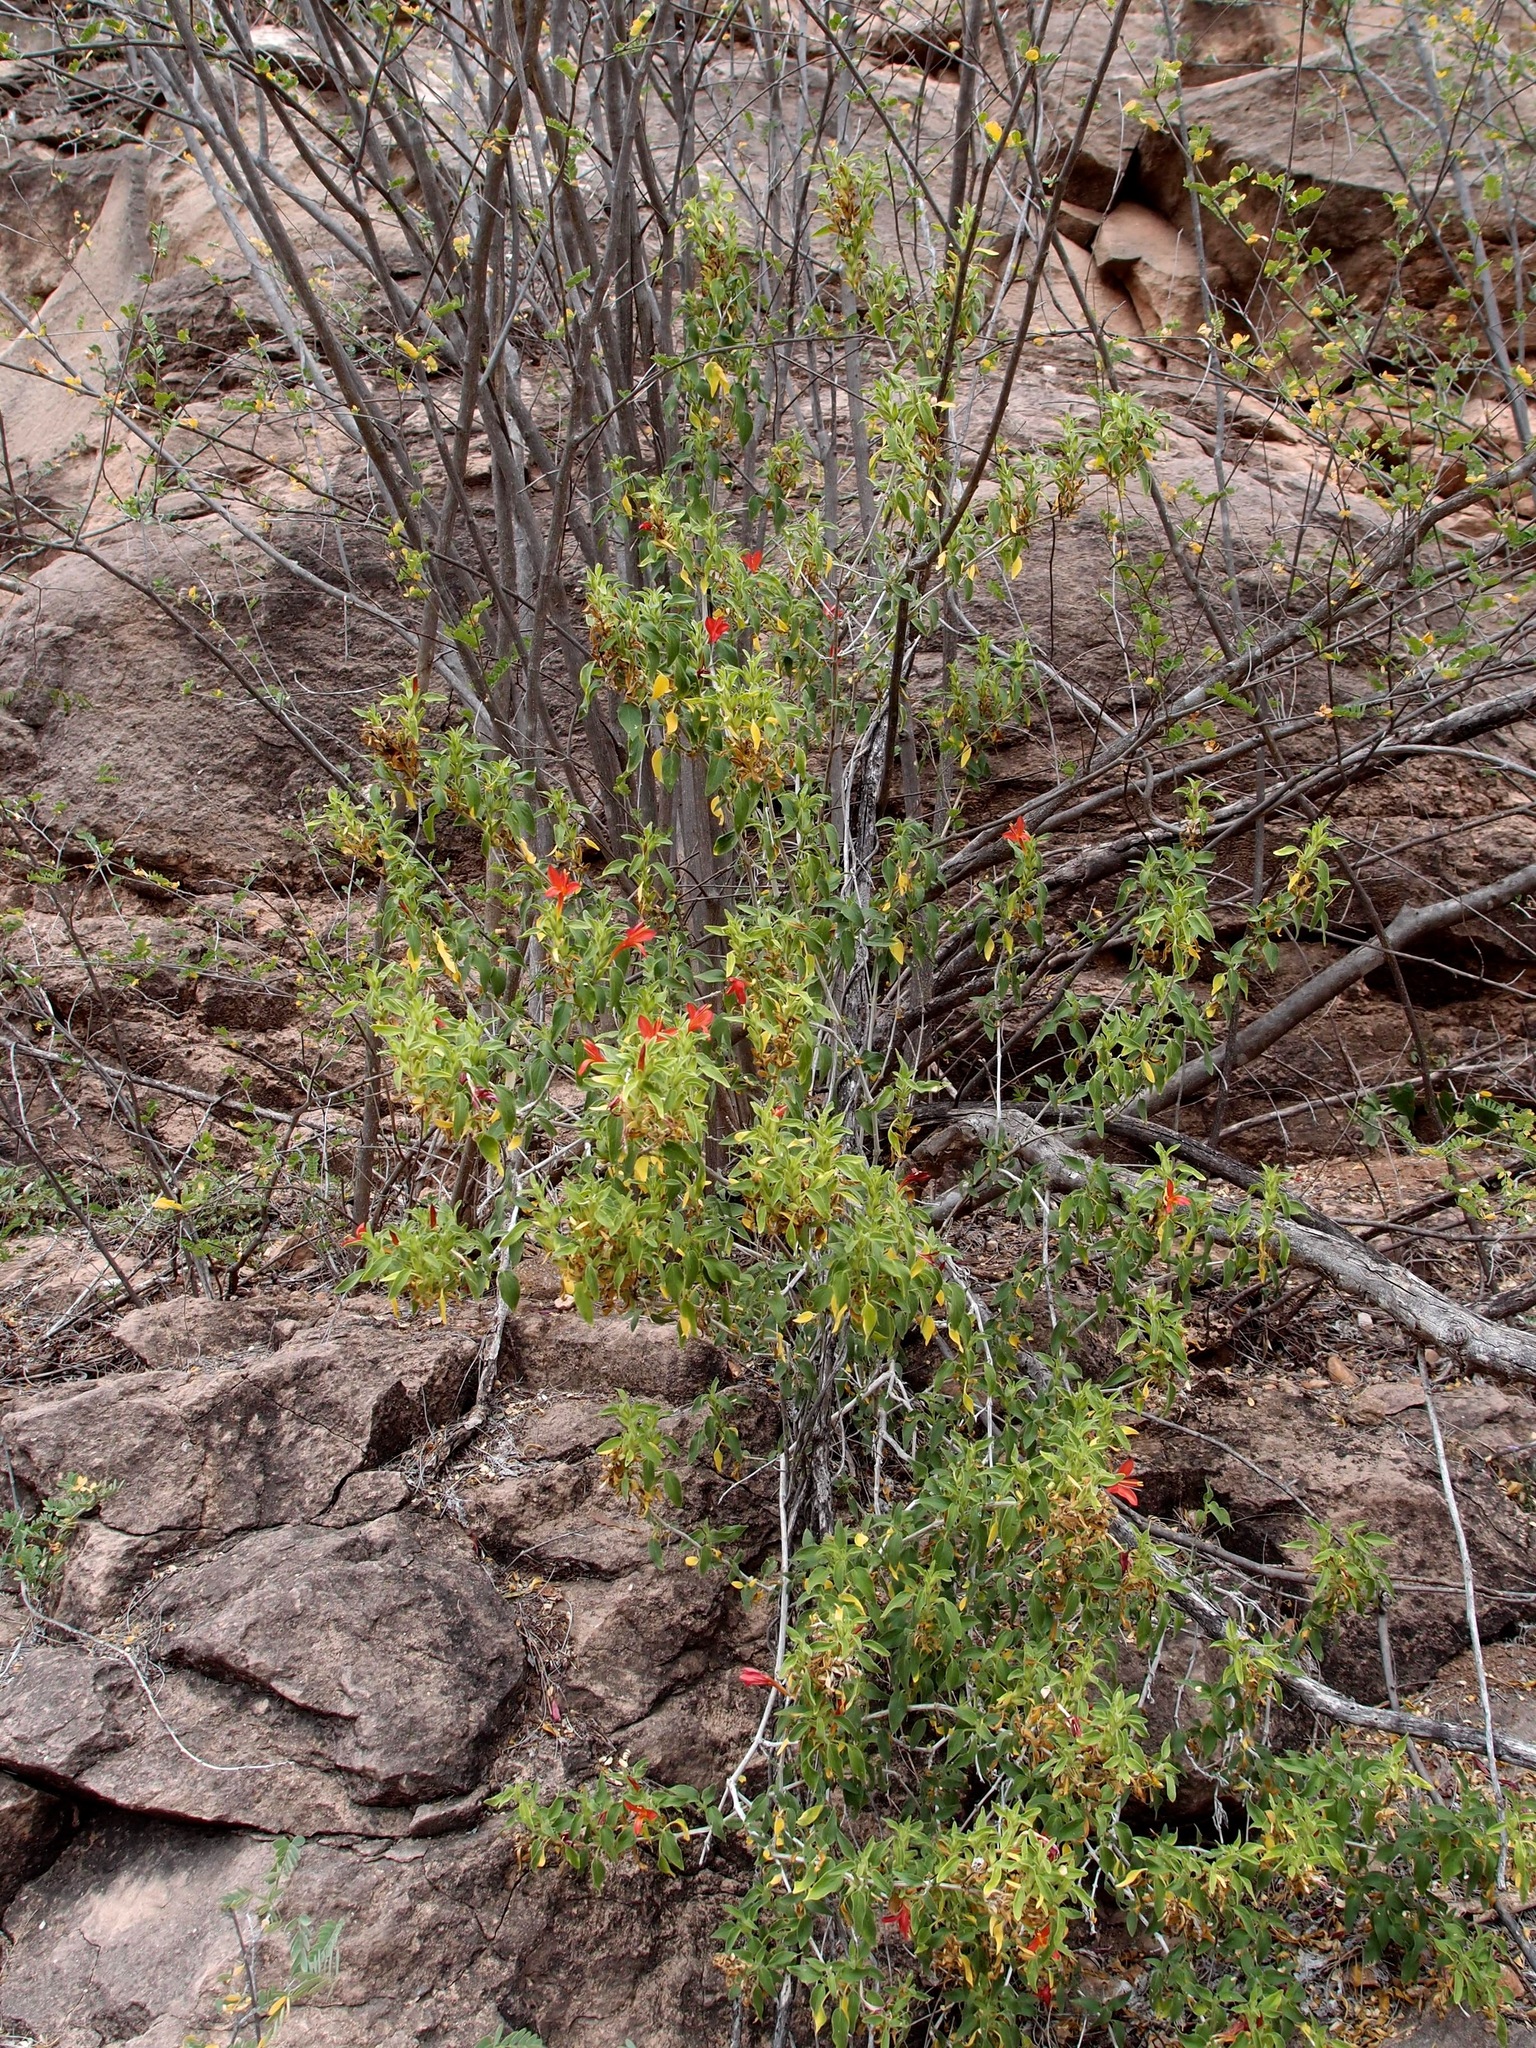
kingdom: Plantae
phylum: Tracheophyta
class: Magnoliopsida
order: Lamiales
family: Acanthaceae
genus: Tetramerium
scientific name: Tetramerium abditum
